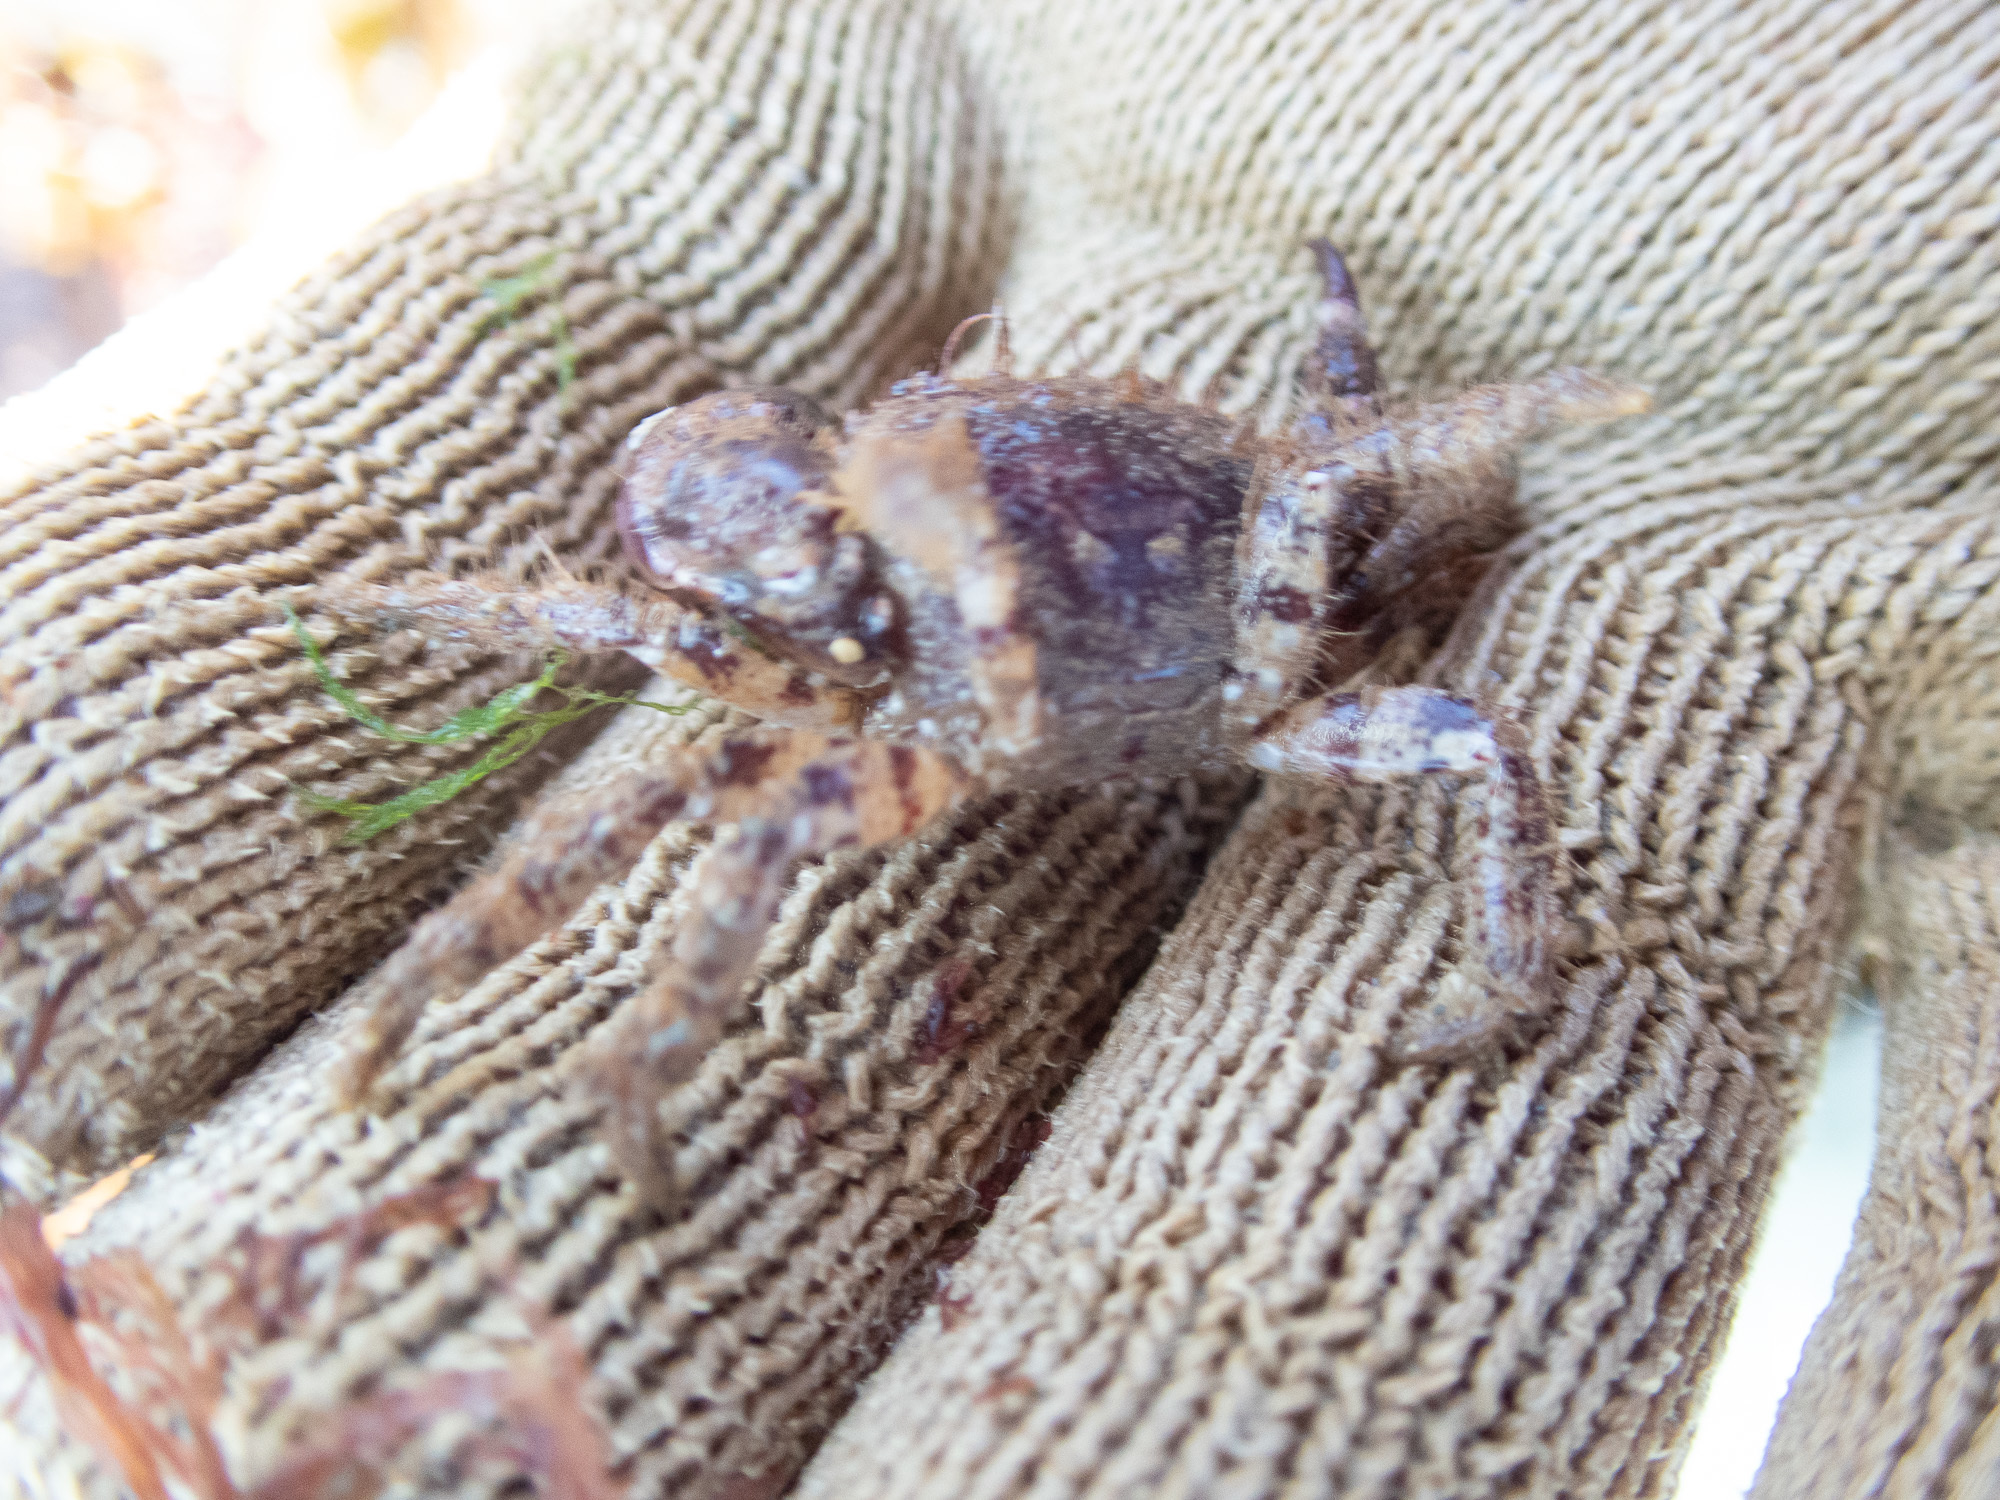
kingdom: Animalia
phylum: Arthropoda
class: Malacostraca
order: Decapoda
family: Pilumnidae
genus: Pilumnus
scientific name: Pilumnus hirtellus
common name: Hairy crab
